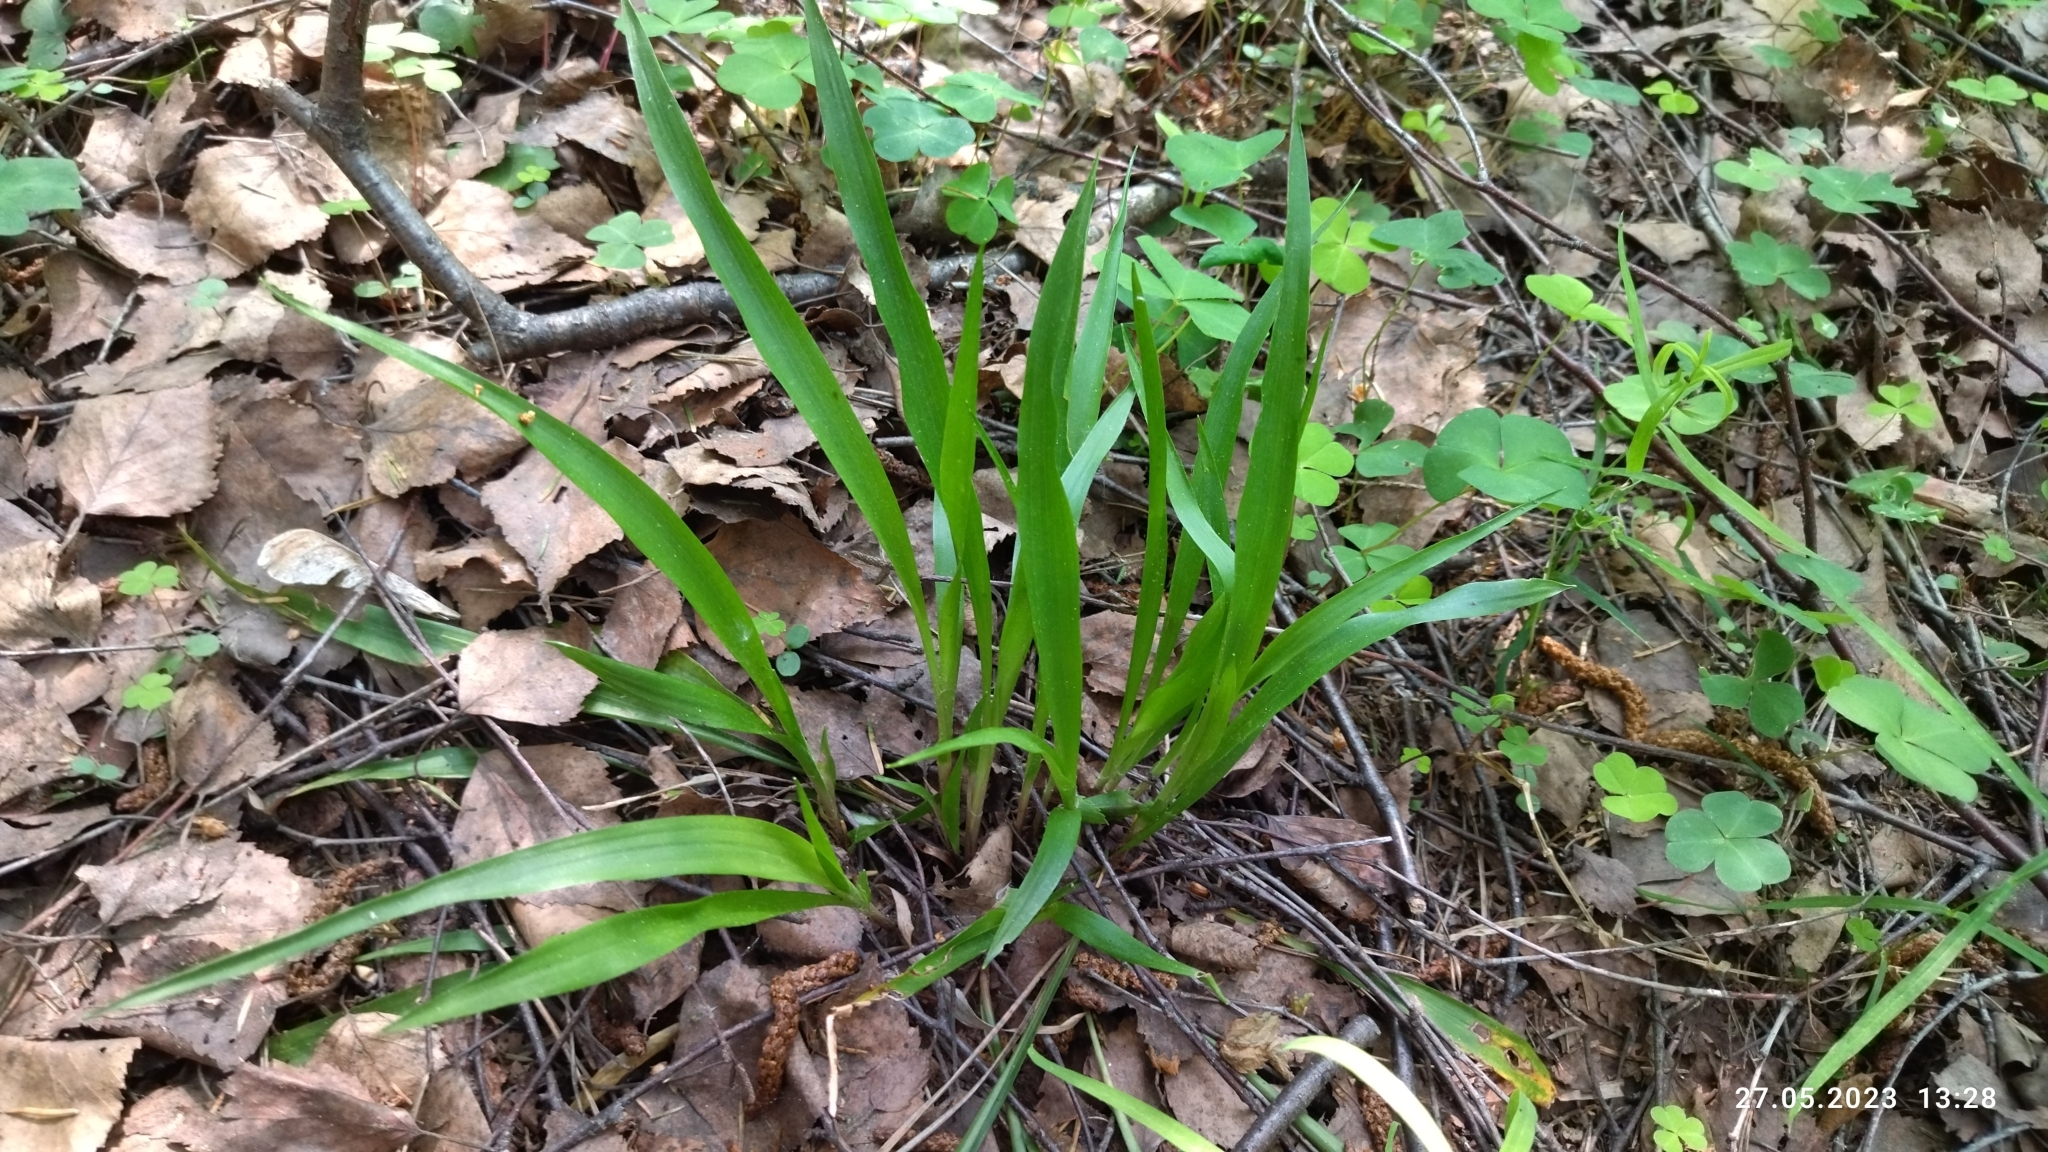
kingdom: Plantae
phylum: Tracheophyta
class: Liliopsida
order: Poales
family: Juncaceae
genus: Luzula
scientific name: Luzula pilosa
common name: Hairy wood-rush
